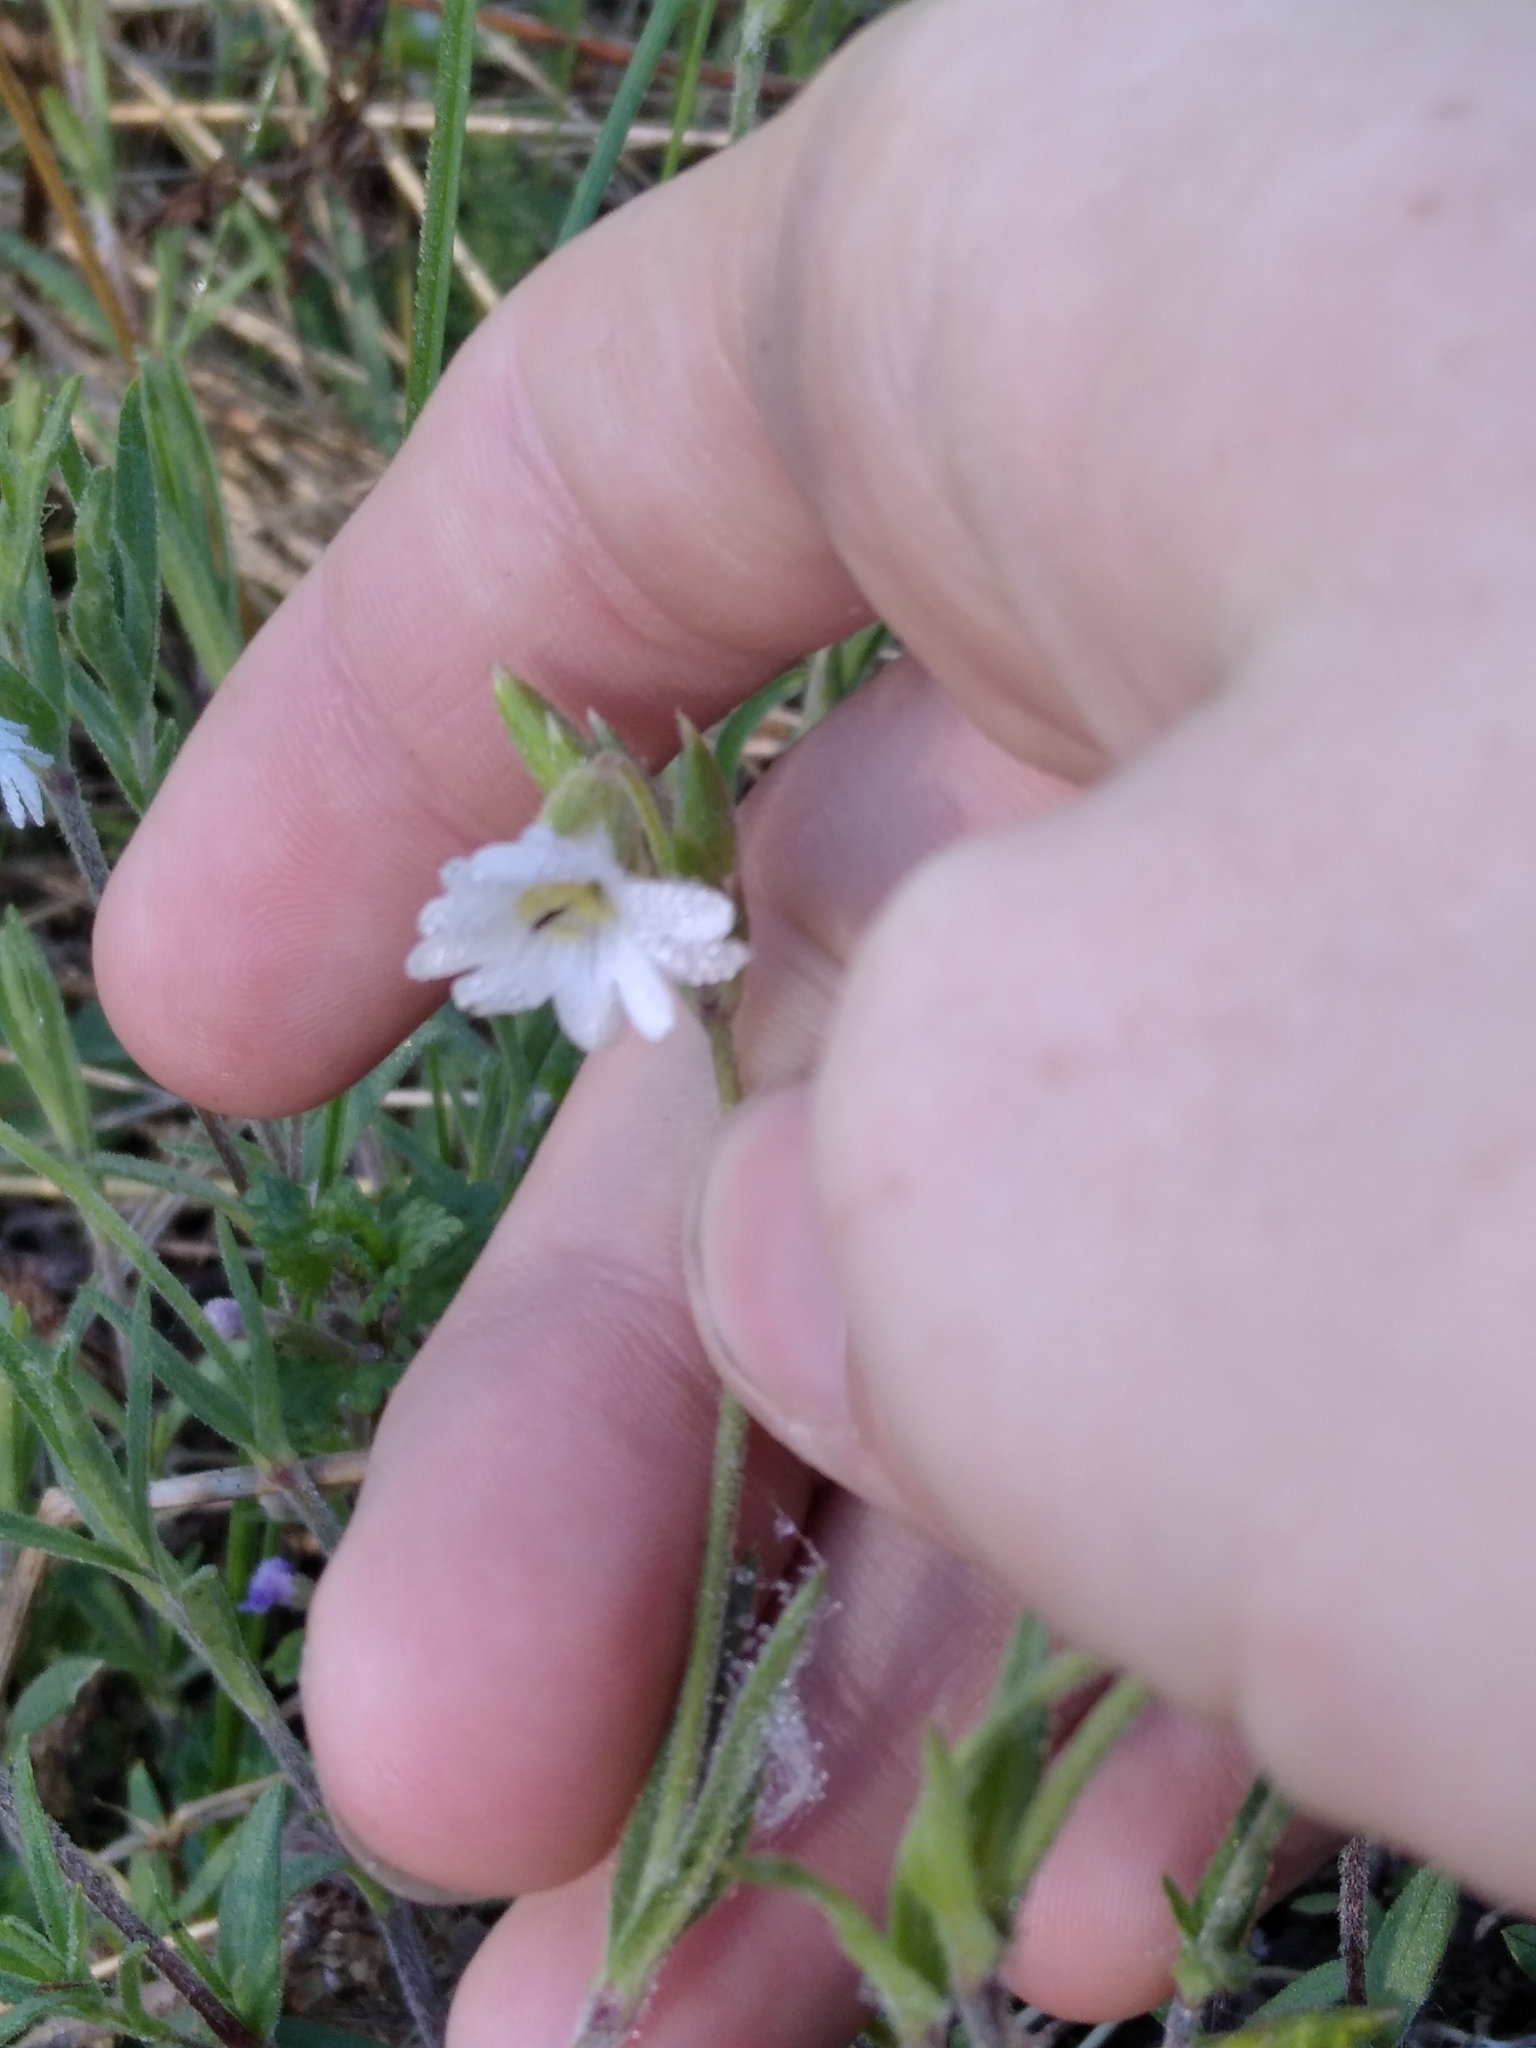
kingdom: Plantae
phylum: Tracheophyta
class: Magnoliopsida
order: Caryophyllales
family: Caryophyllaceae
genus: Cerastium
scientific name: Cerastium arvense
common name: Field mouse-ear
